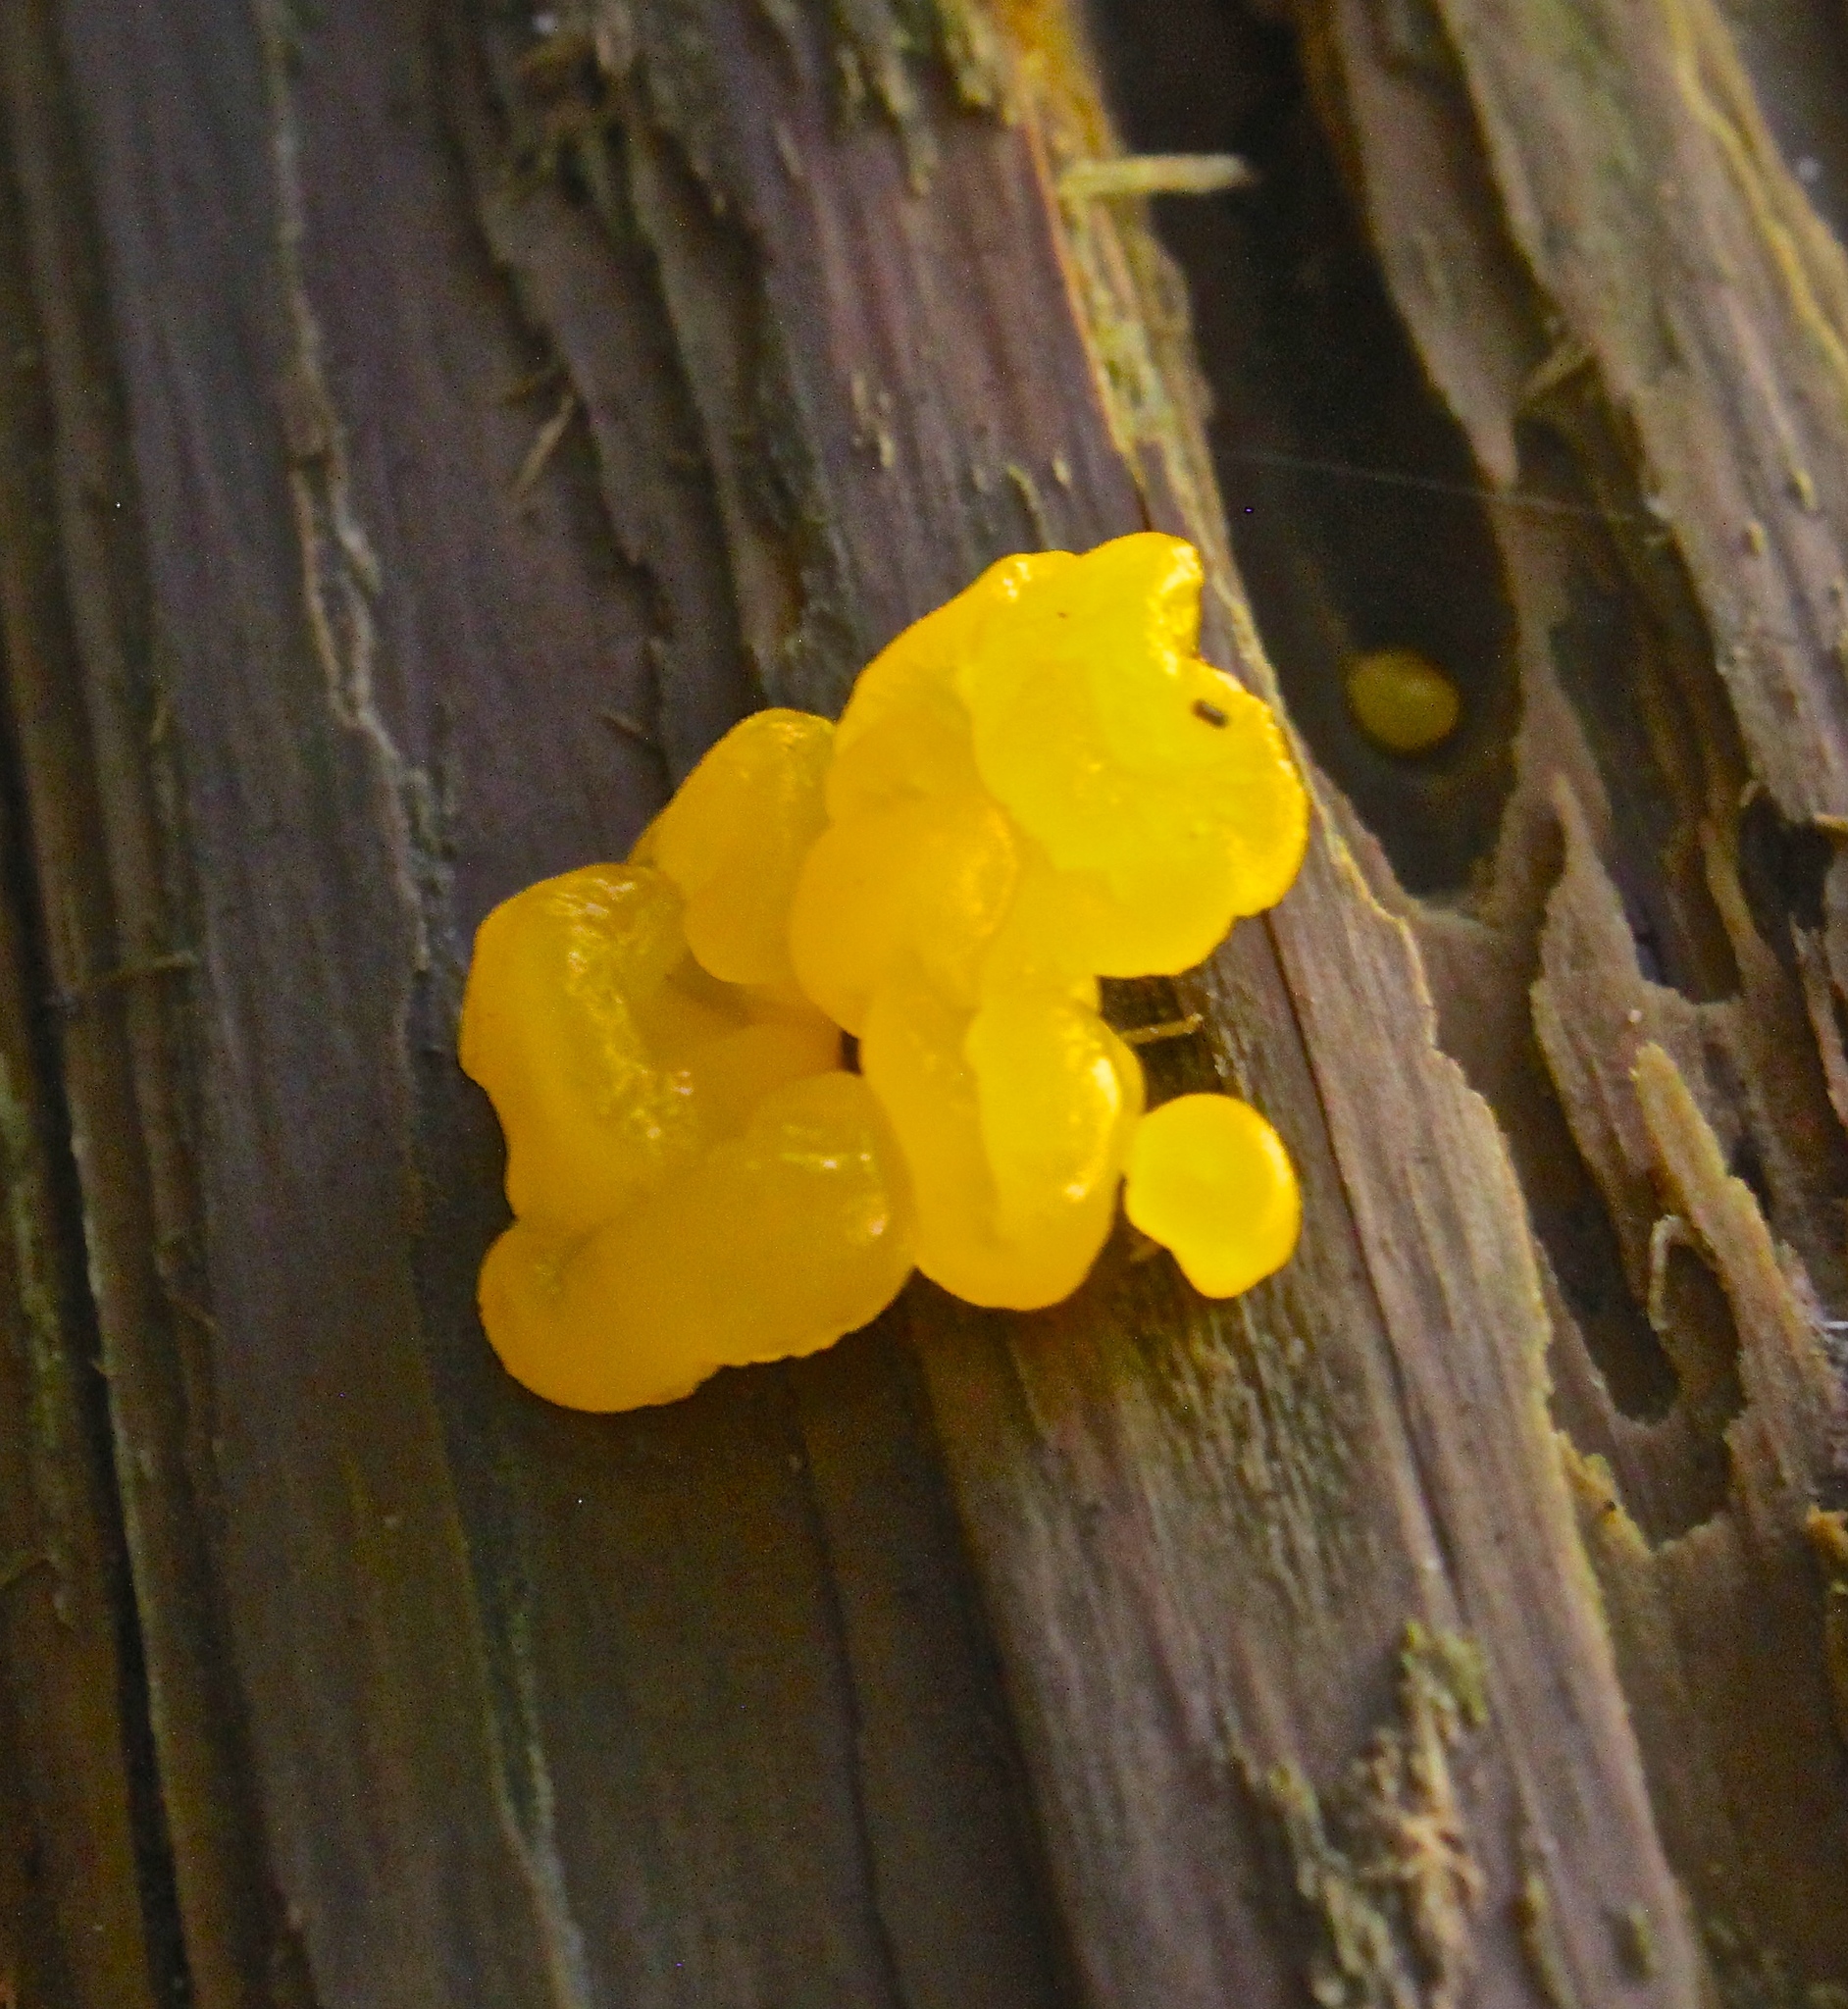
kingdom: Fungi
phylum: Basidiomycota
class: Dacrymycetes
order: Dacrymycetales
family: Dacrymycetaceae
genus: Dacrymyces
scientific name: Dacrymyces chrysospermus
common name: Orange jelly spot
